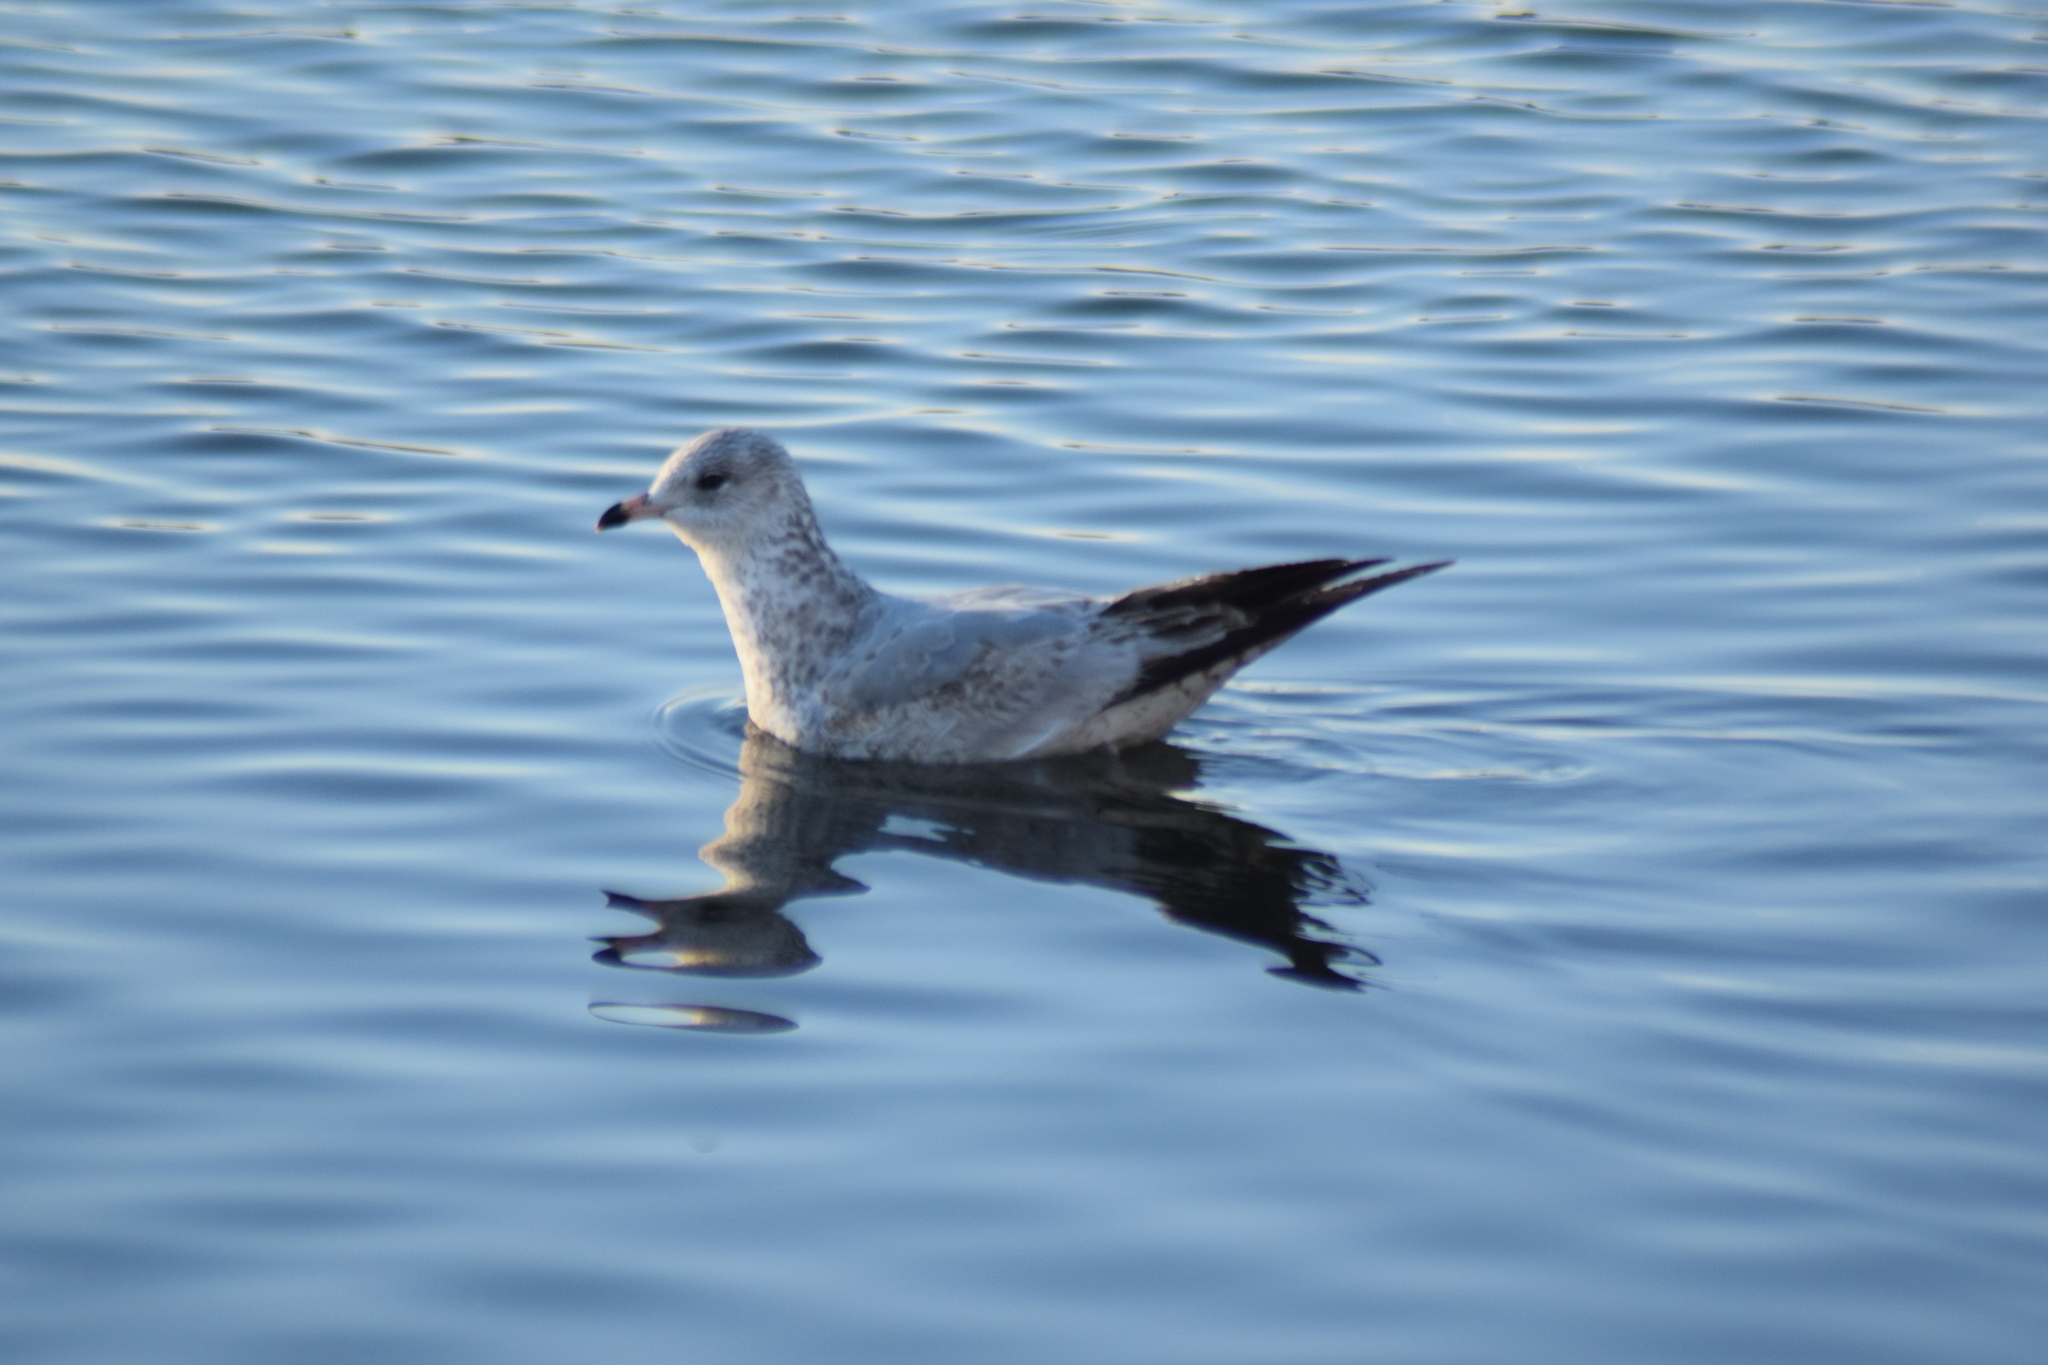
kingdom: Animalia
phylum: Chordata
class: Aves
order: Charadriiformes
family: Laridae
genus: Larus
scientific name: Larus delawarensis
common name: Ring-billed gull
